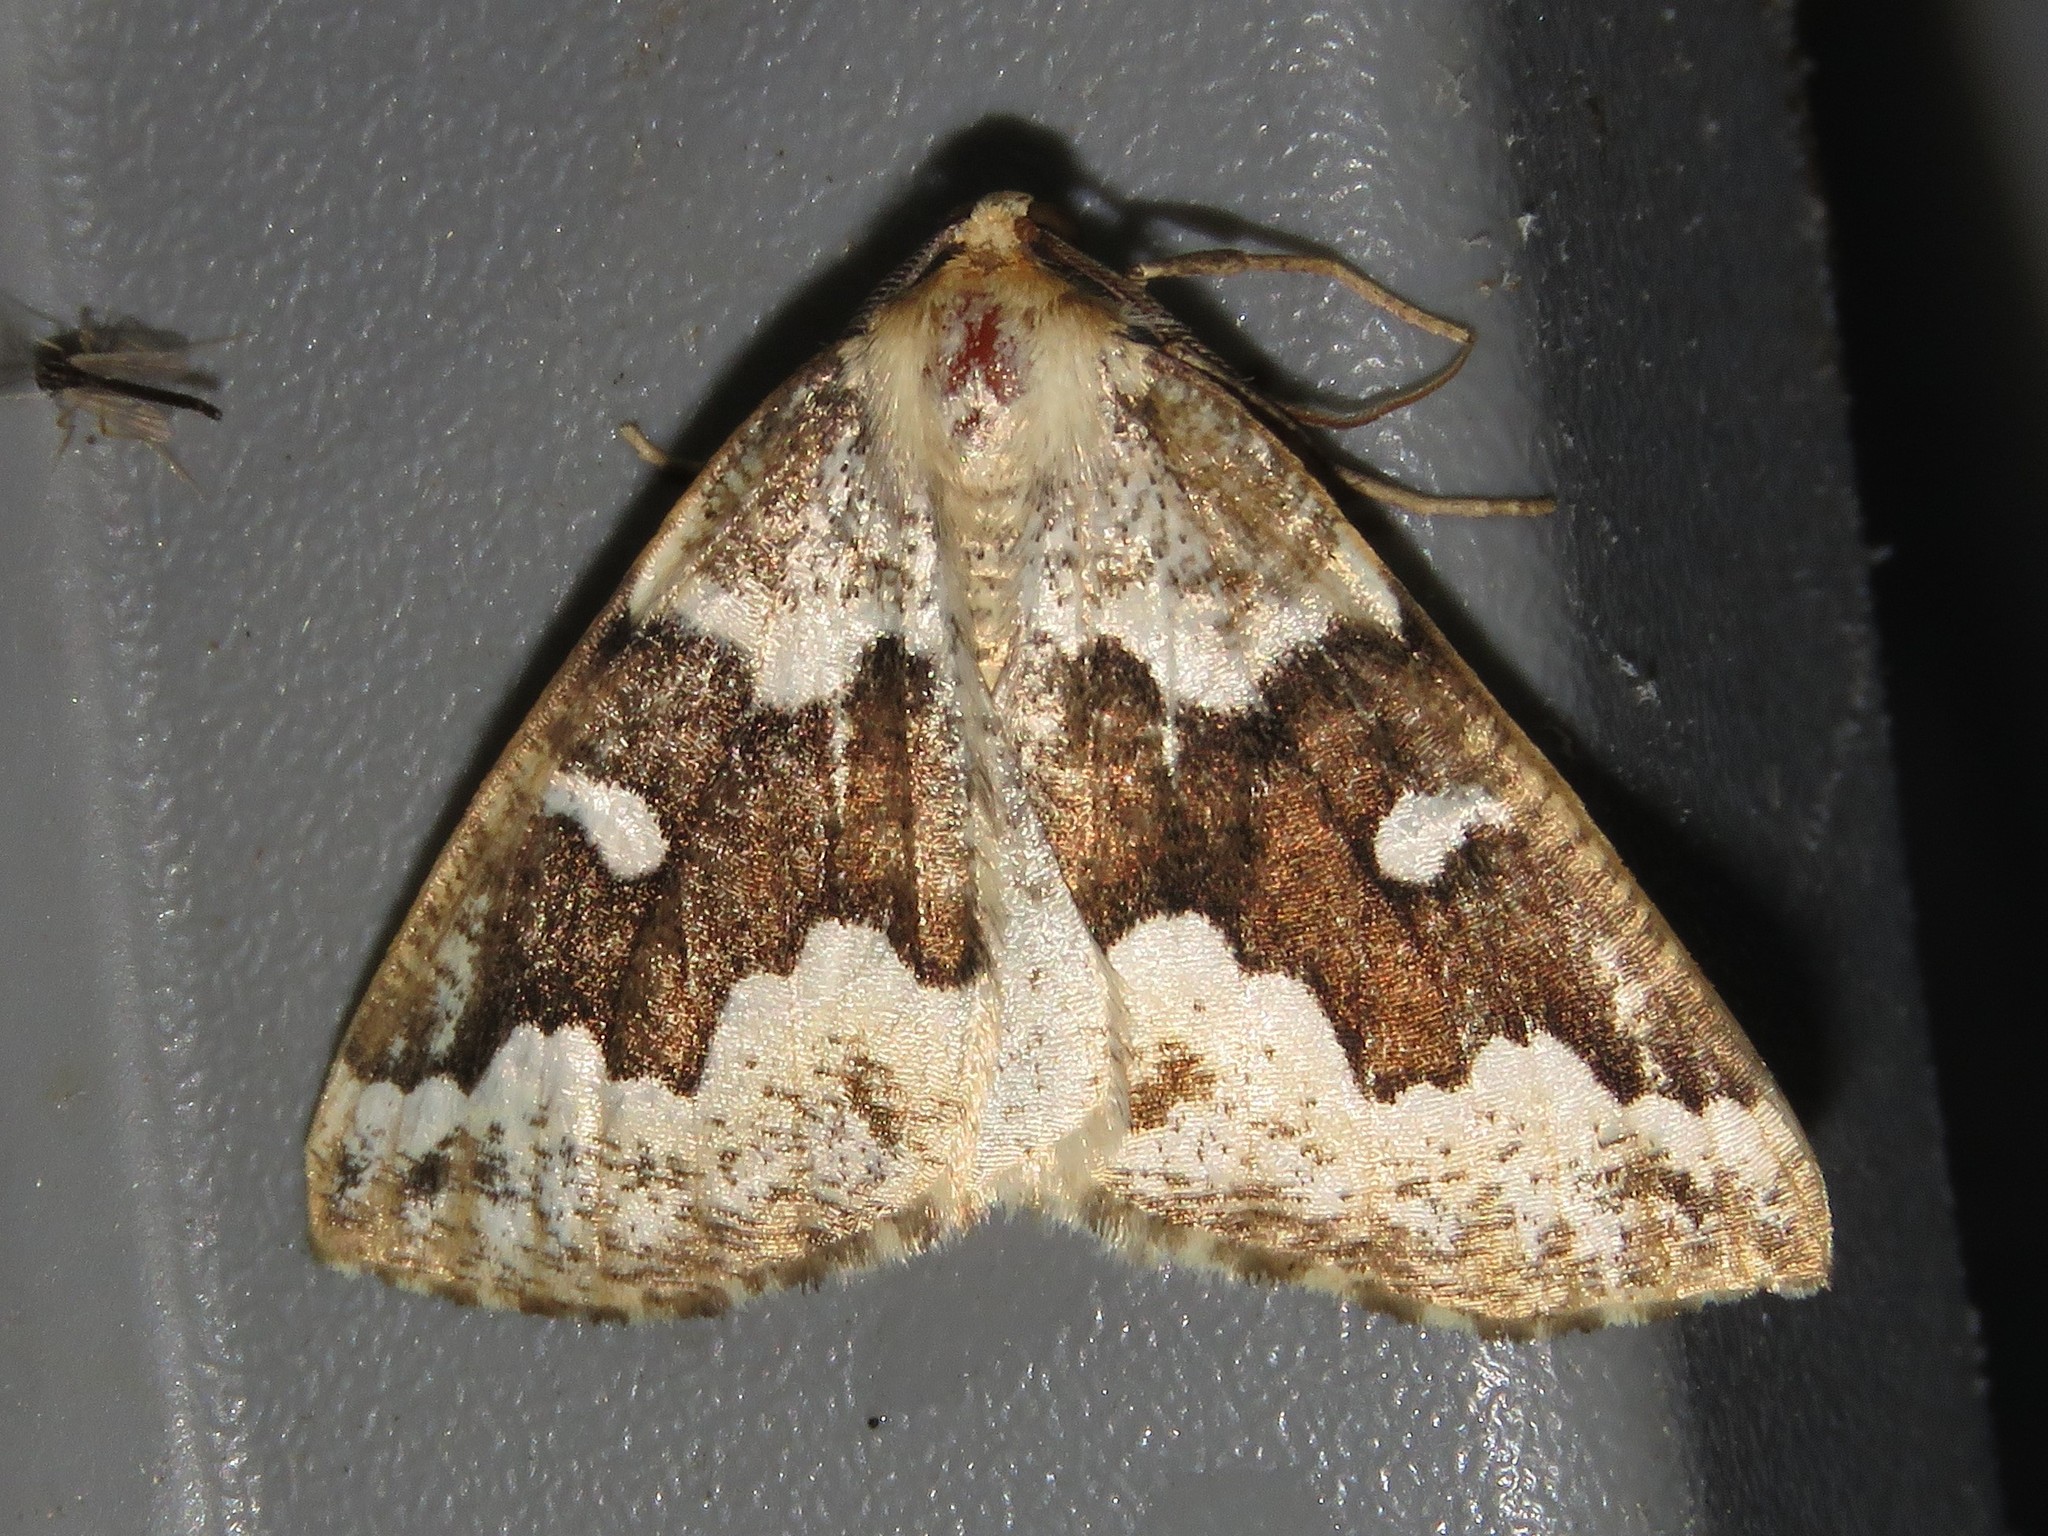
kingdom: Animalia
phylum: Arthropoda
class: Insecta
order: Lepidoptera
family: Geometridae
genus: Caripeta
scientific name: Caripeta divisata
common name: Gray spruce looper
